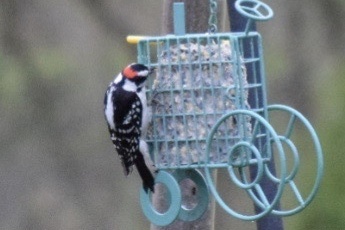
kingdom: Animalia
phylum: Chordata
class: Aves
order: Piciformes
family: Picidae
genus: Dryobates
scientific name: Dryobates pubescens
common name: Downy woodpecker
